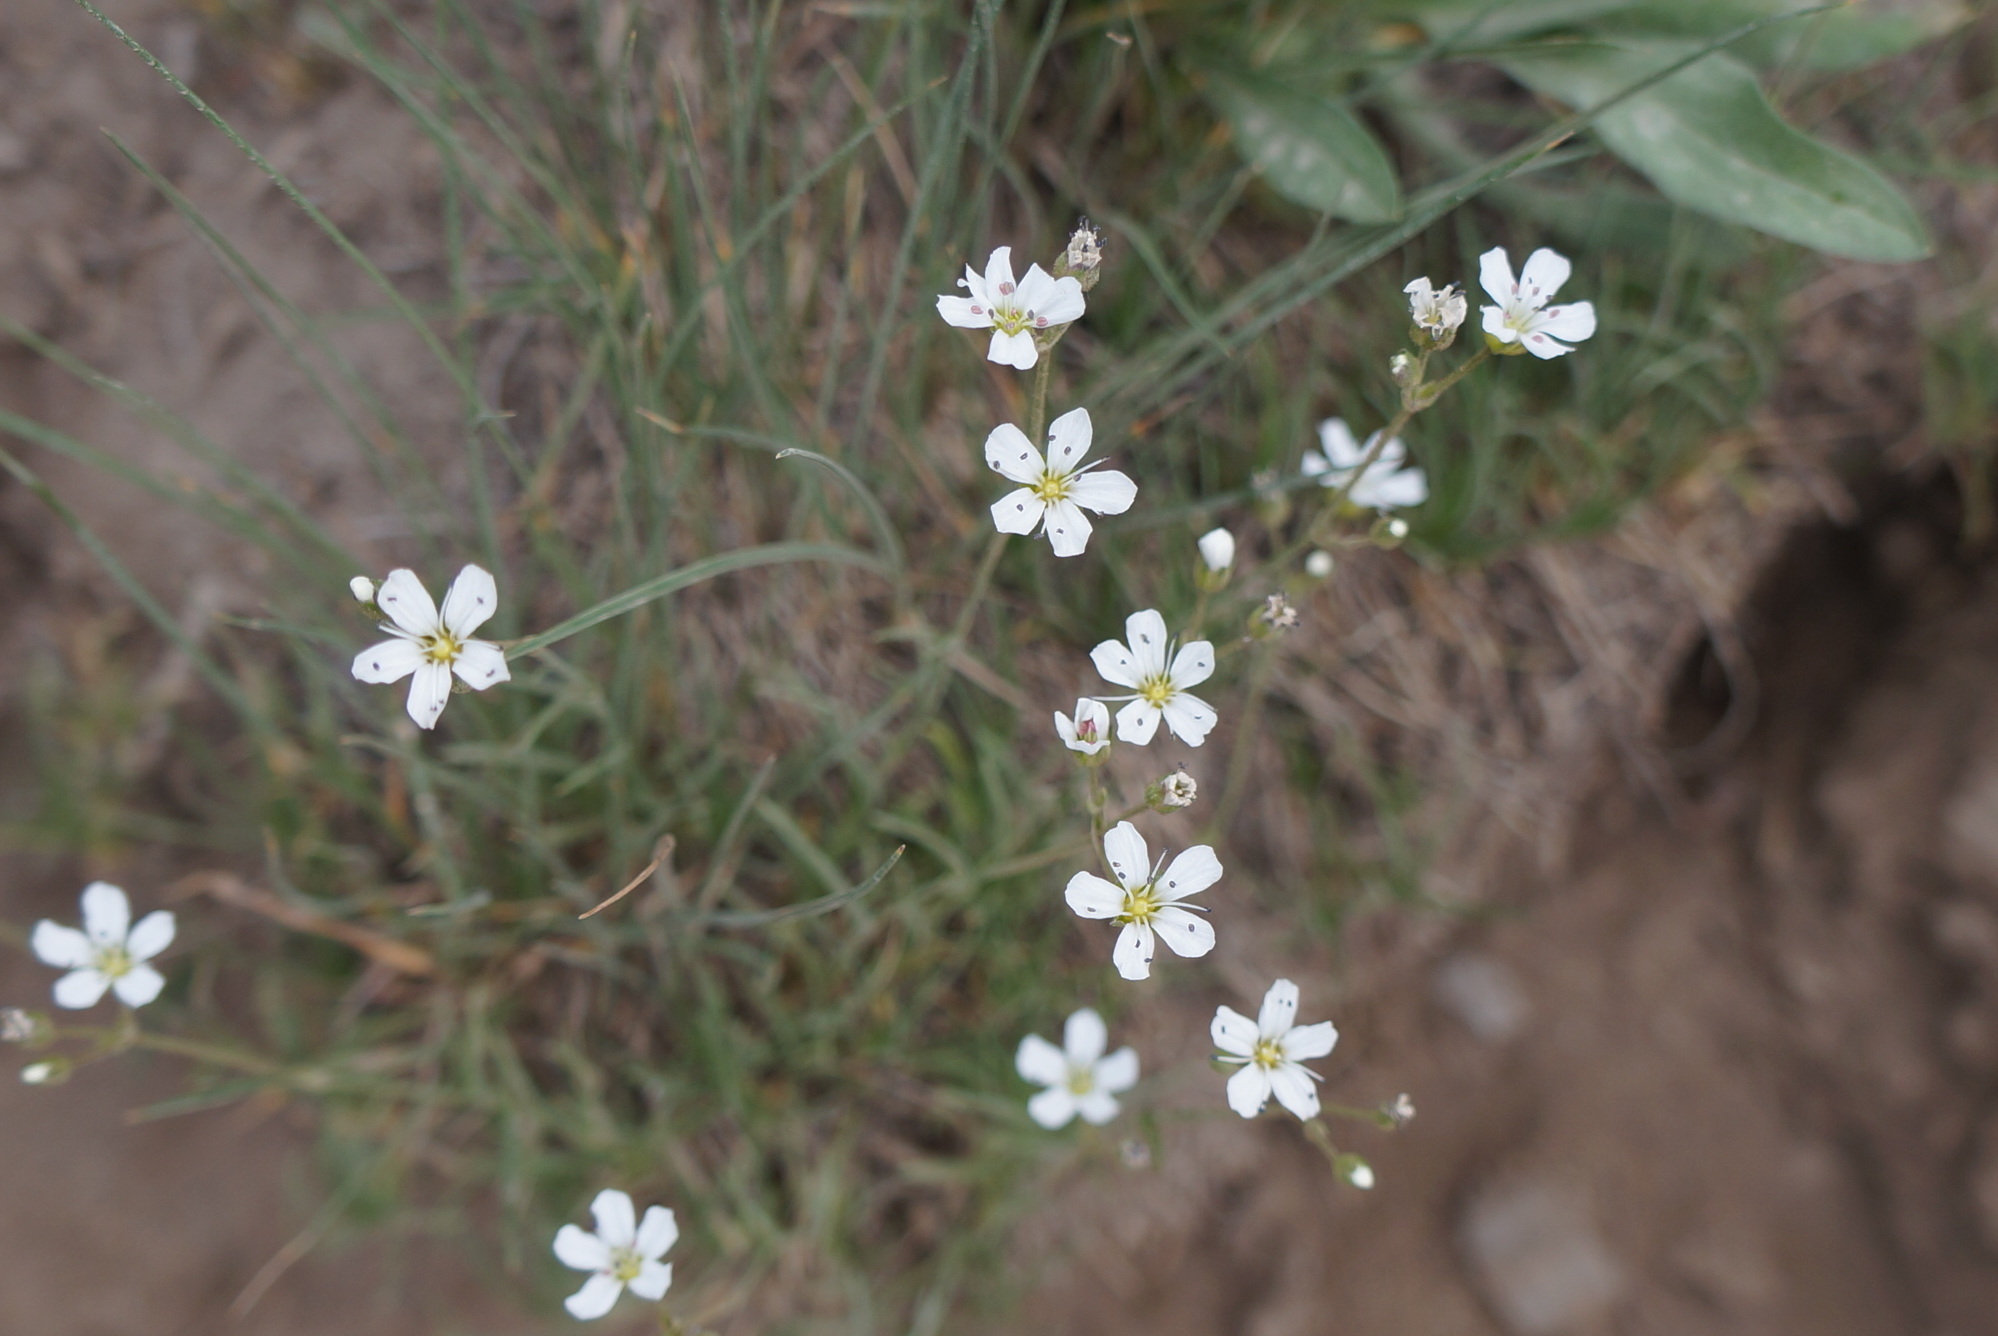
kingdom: Plantae
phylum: Tracheophyta
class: Magnoliopsida
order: Caryophyllales
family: Caryophyllaceae
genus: Eremogone
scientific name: Eremogone capillaris
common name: Slender mountain sandwort
